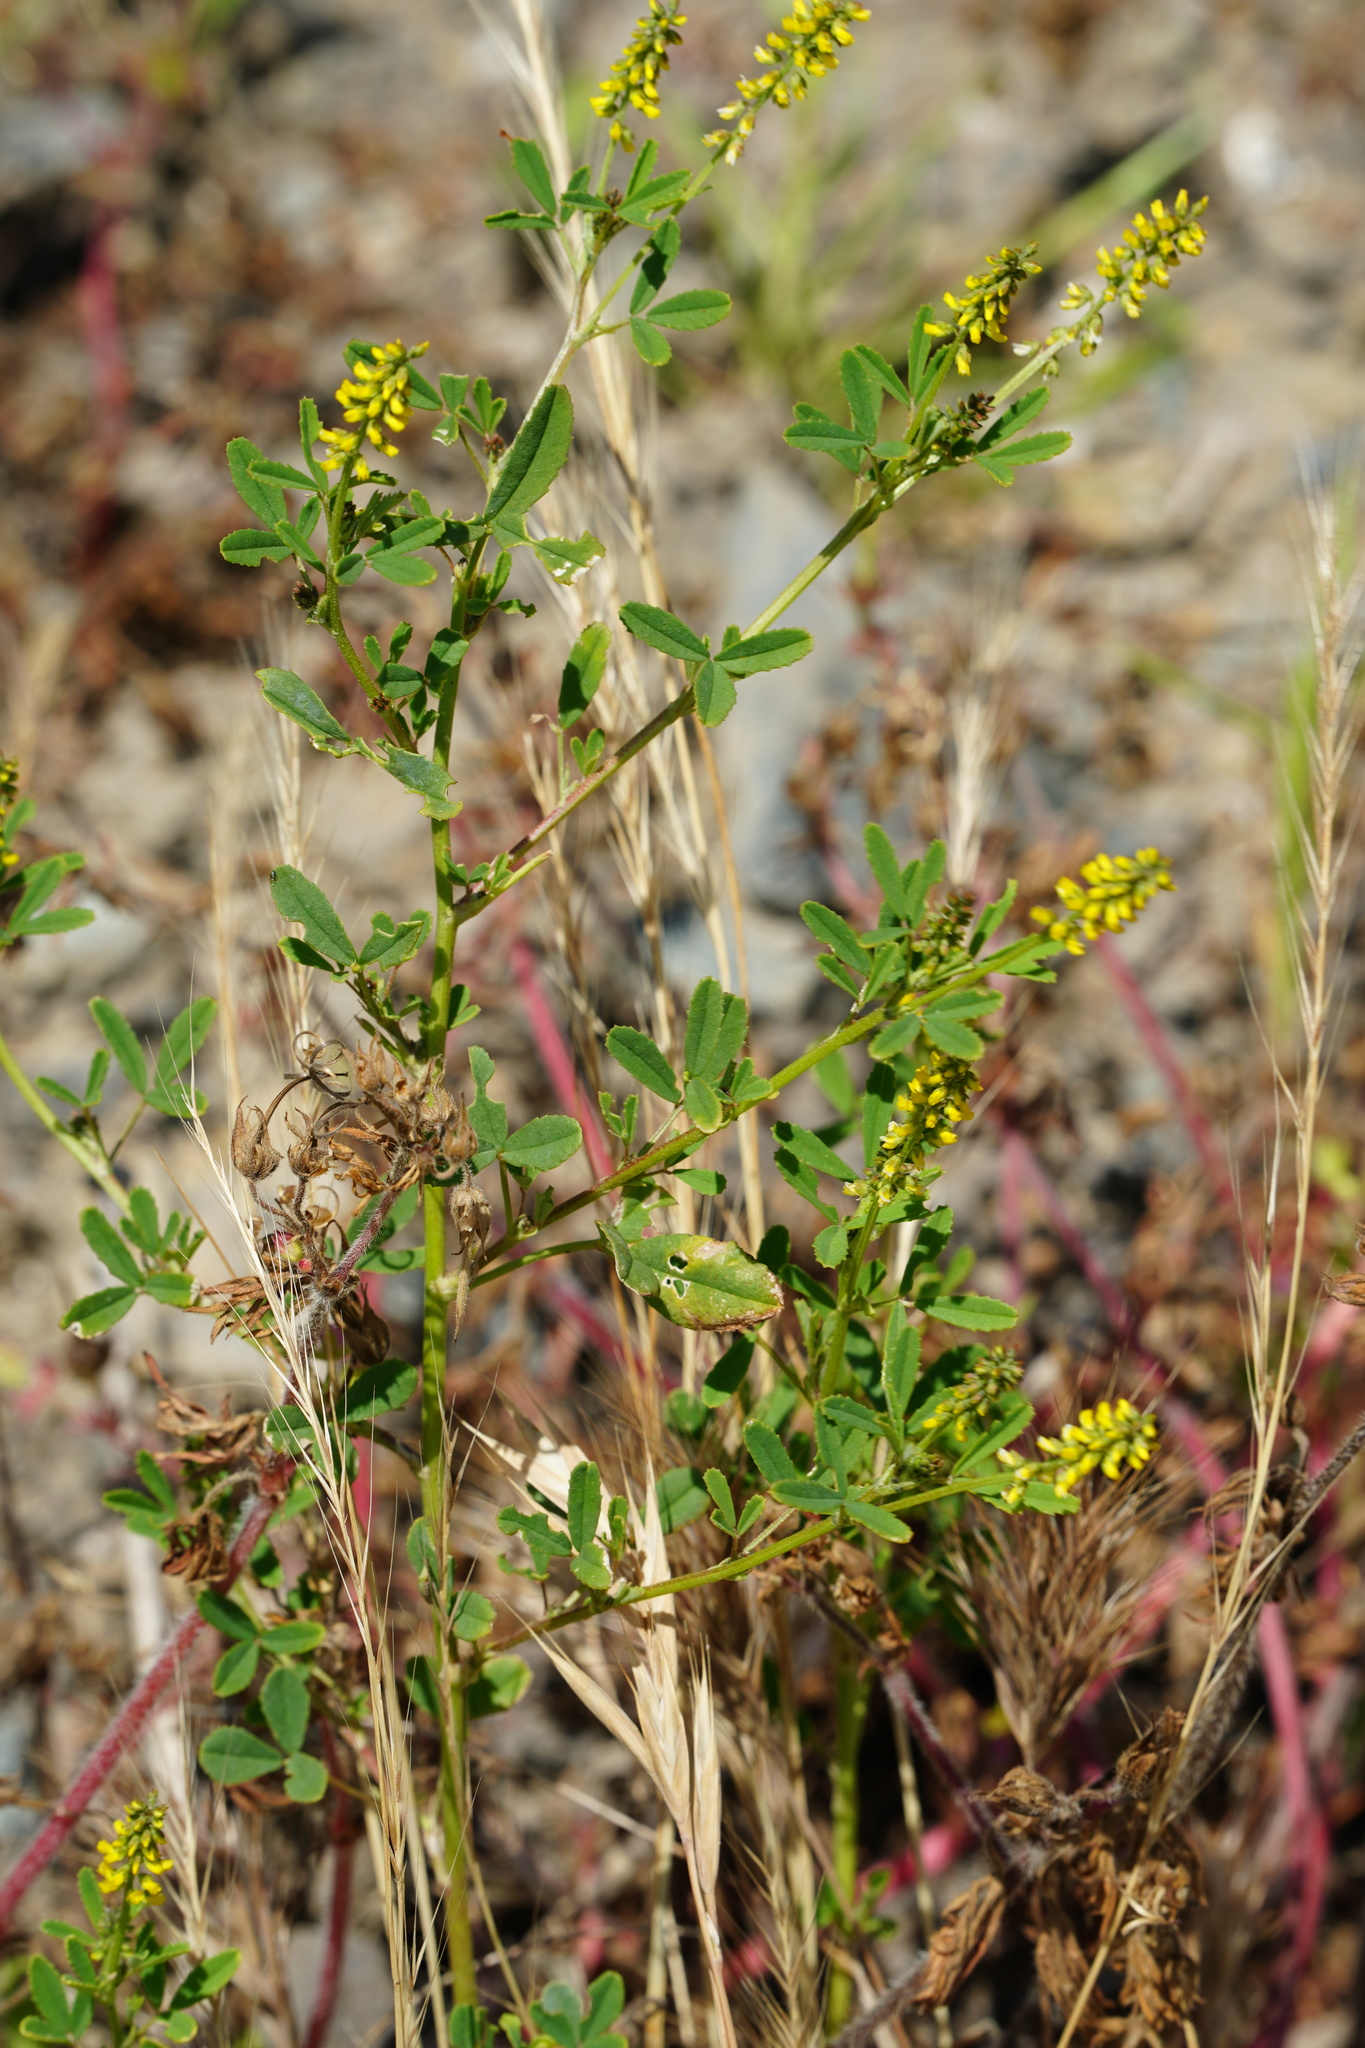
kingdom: Plantae
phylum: Tracheophyta
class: Magnoliopsida
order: Fabales
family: Fabaceae
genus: Melilotus
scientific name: Melilotus indicus
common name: Small melilot
